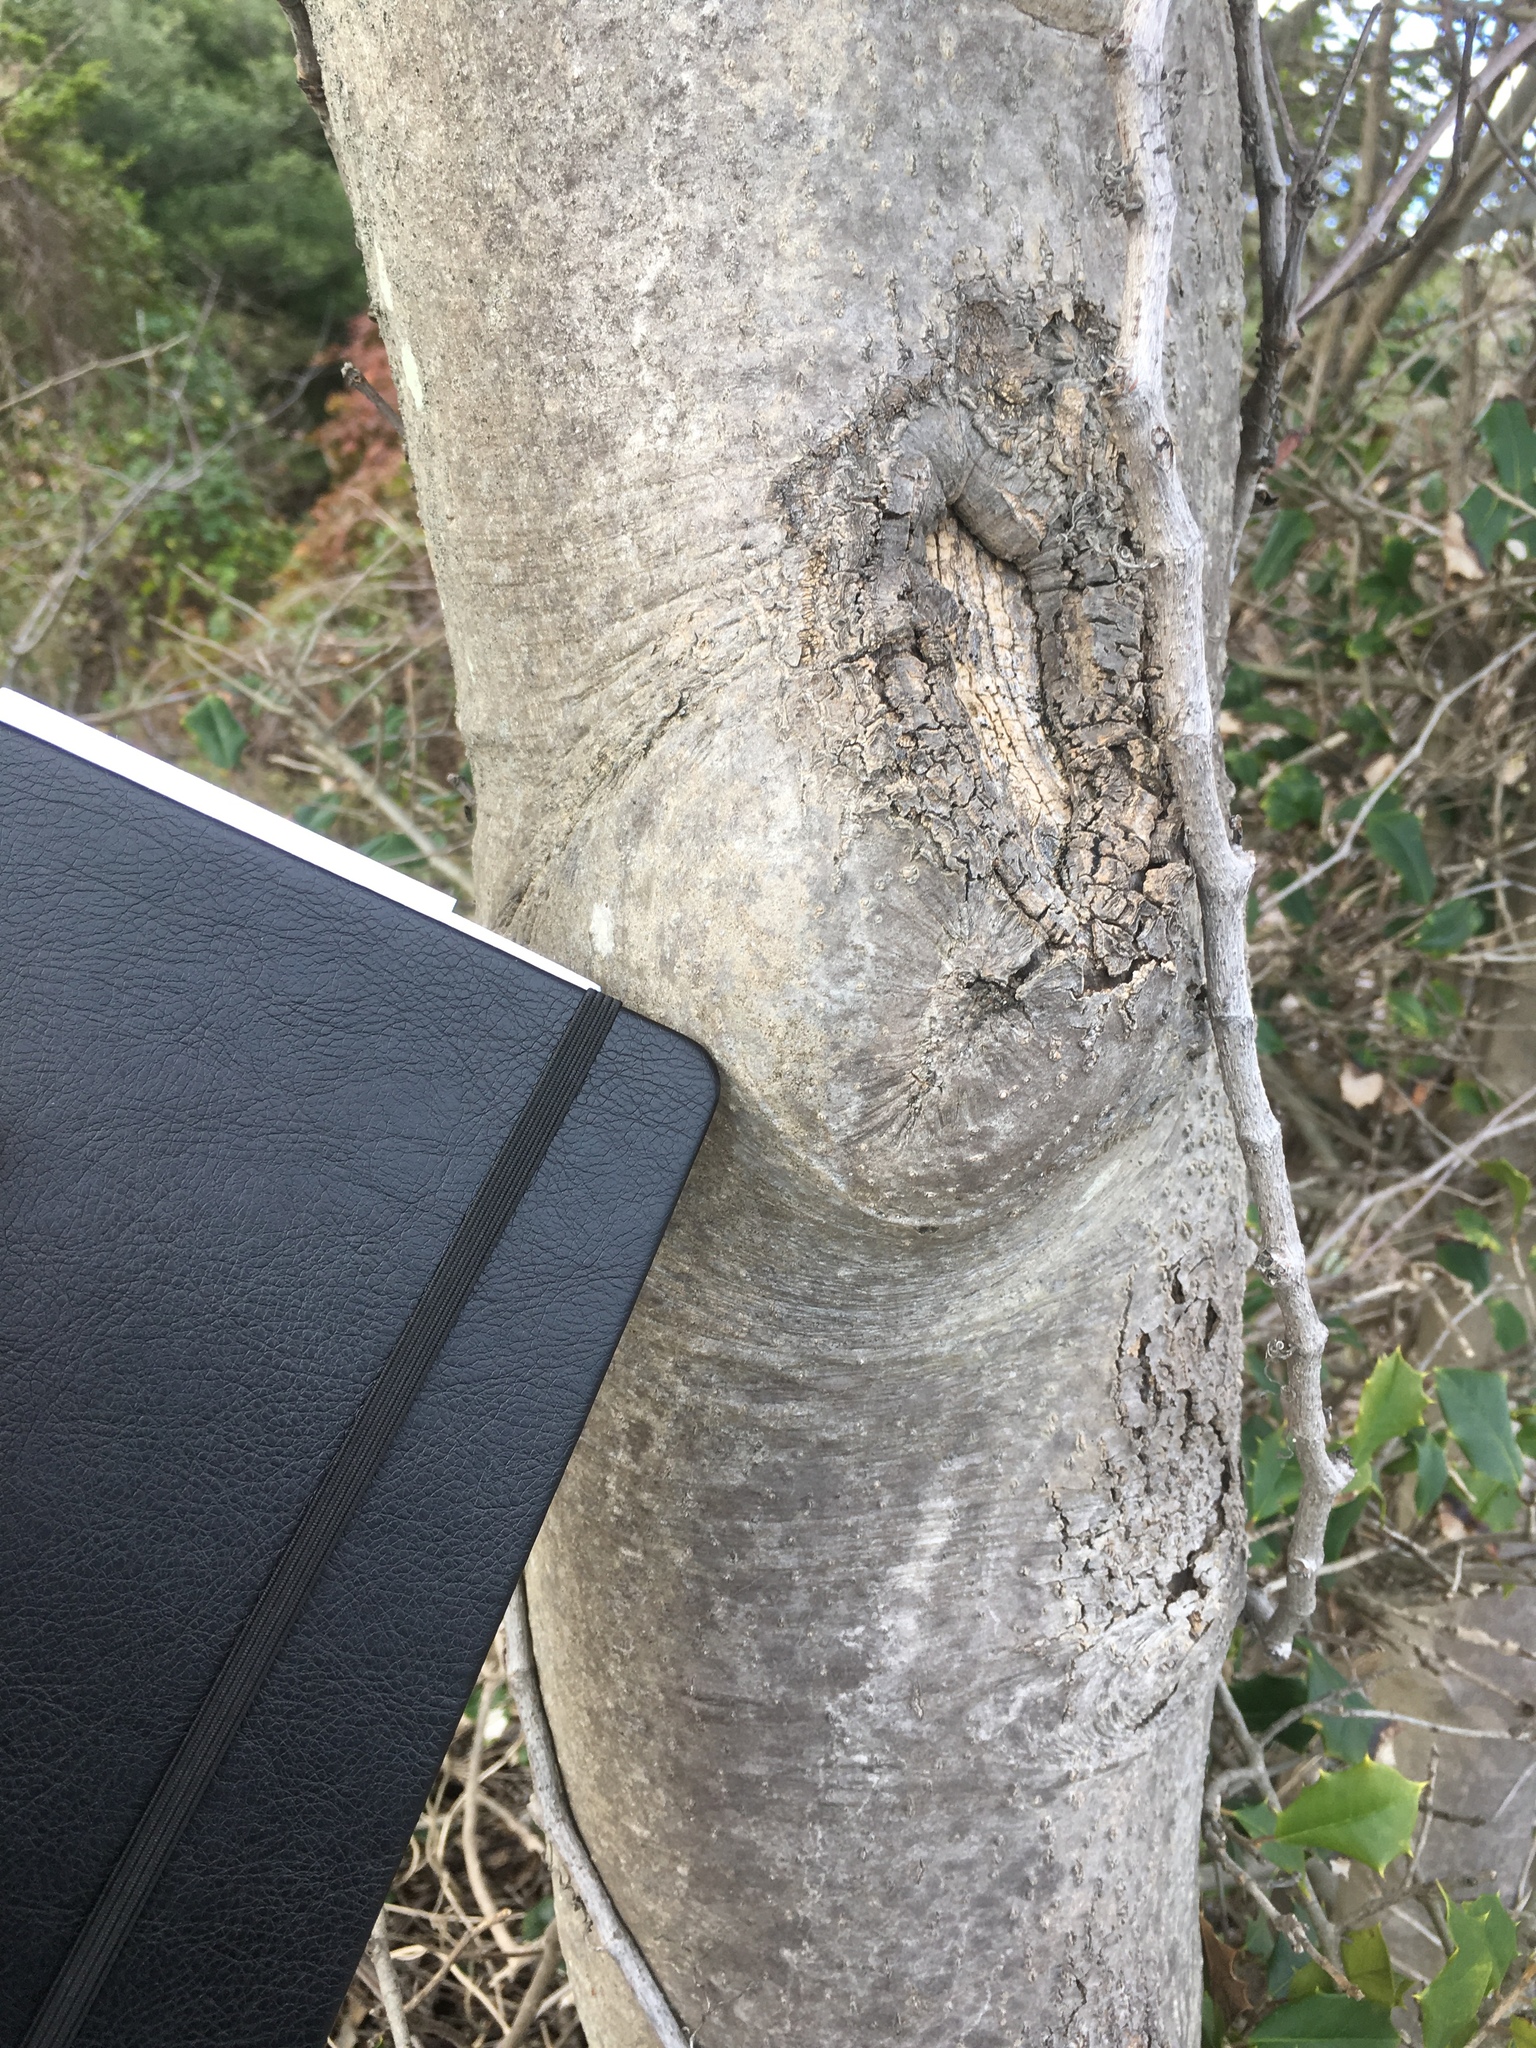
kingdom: Plantae
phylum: Tracheophyta
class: Magnoliopsida
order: Aquifoliales
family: Aquifoliaceae
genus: Ilex
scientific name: Ilex opaca
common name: American holly
